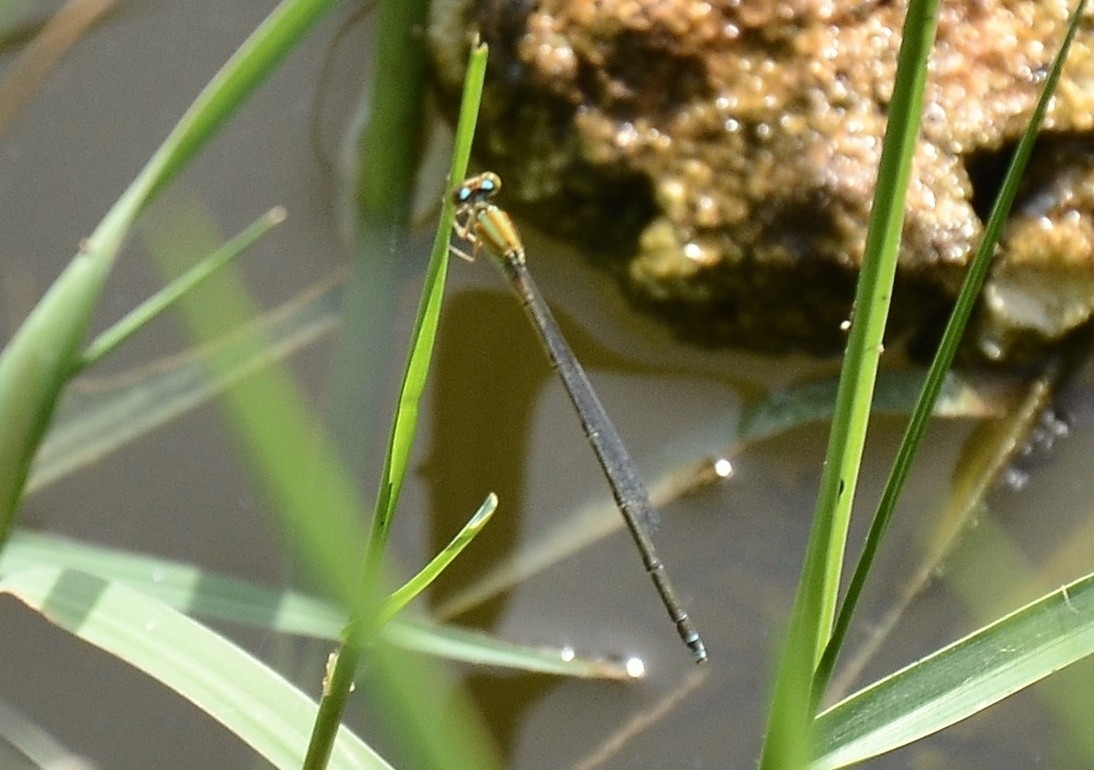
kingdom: Animalia
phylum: Arthropoda
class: Insecta
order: Odonata
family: Coenagrionidae
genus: Pseudagrion
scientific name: Pseudagrion microcephalum
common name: Blue riverdamsel
